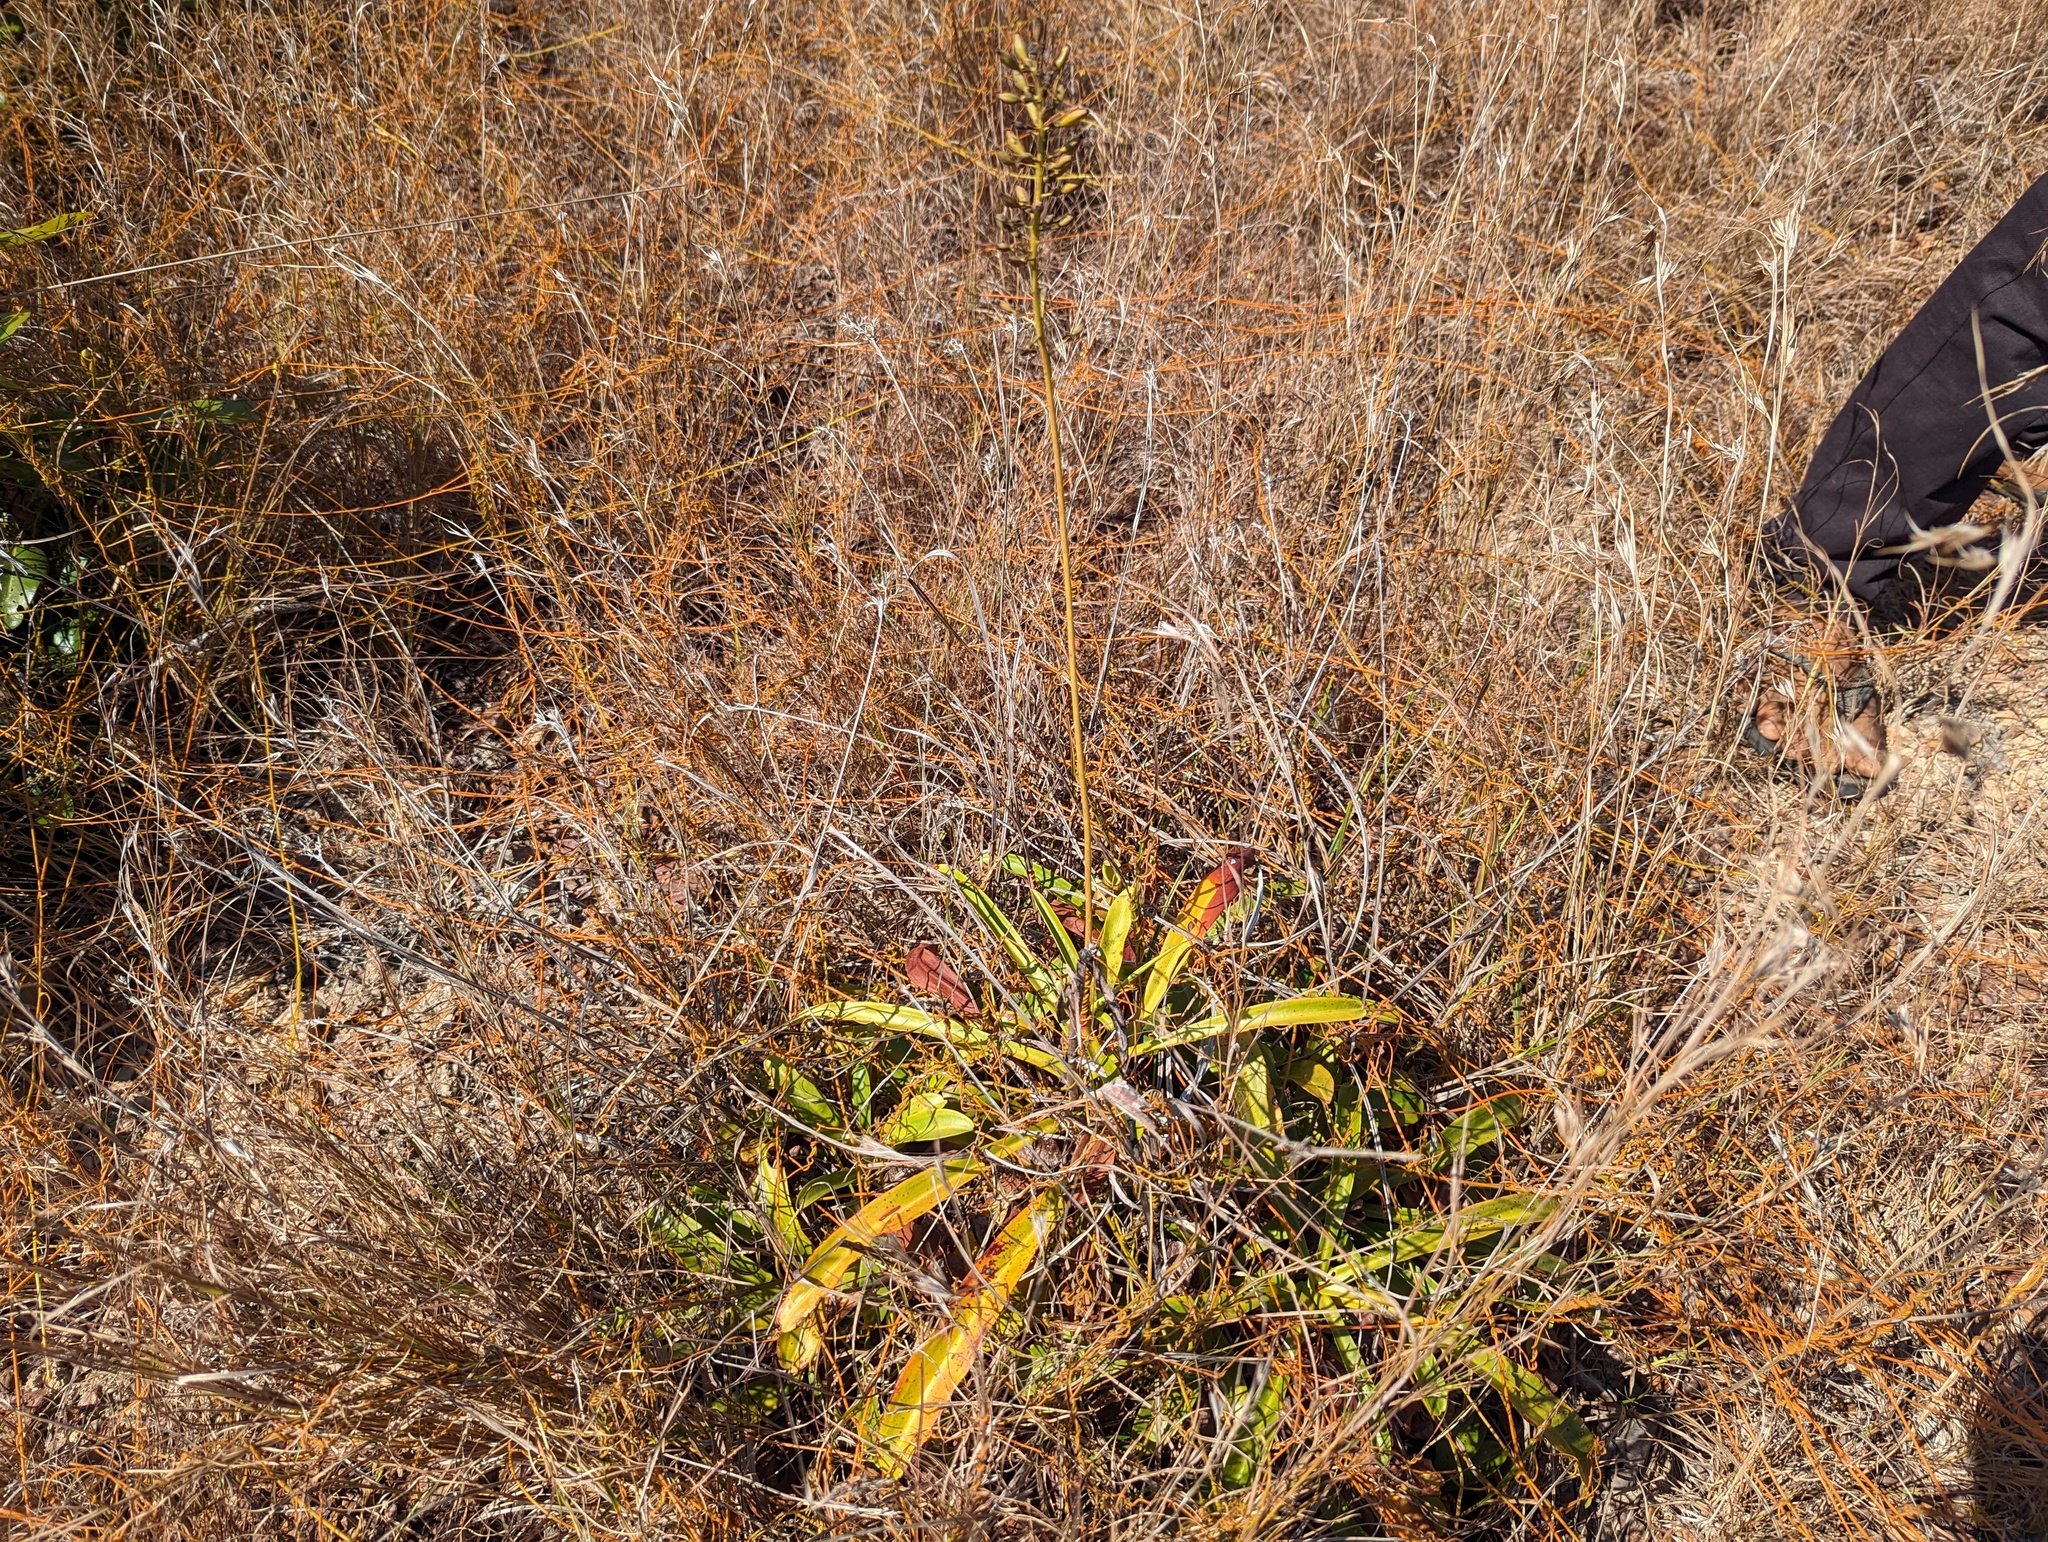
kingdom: Plantae
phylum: Tracheophyta
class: Magnoliopsida
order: Caryophyllales
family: Nepenthaceae
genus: Nepenthes
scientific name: Nepenthes abalata
